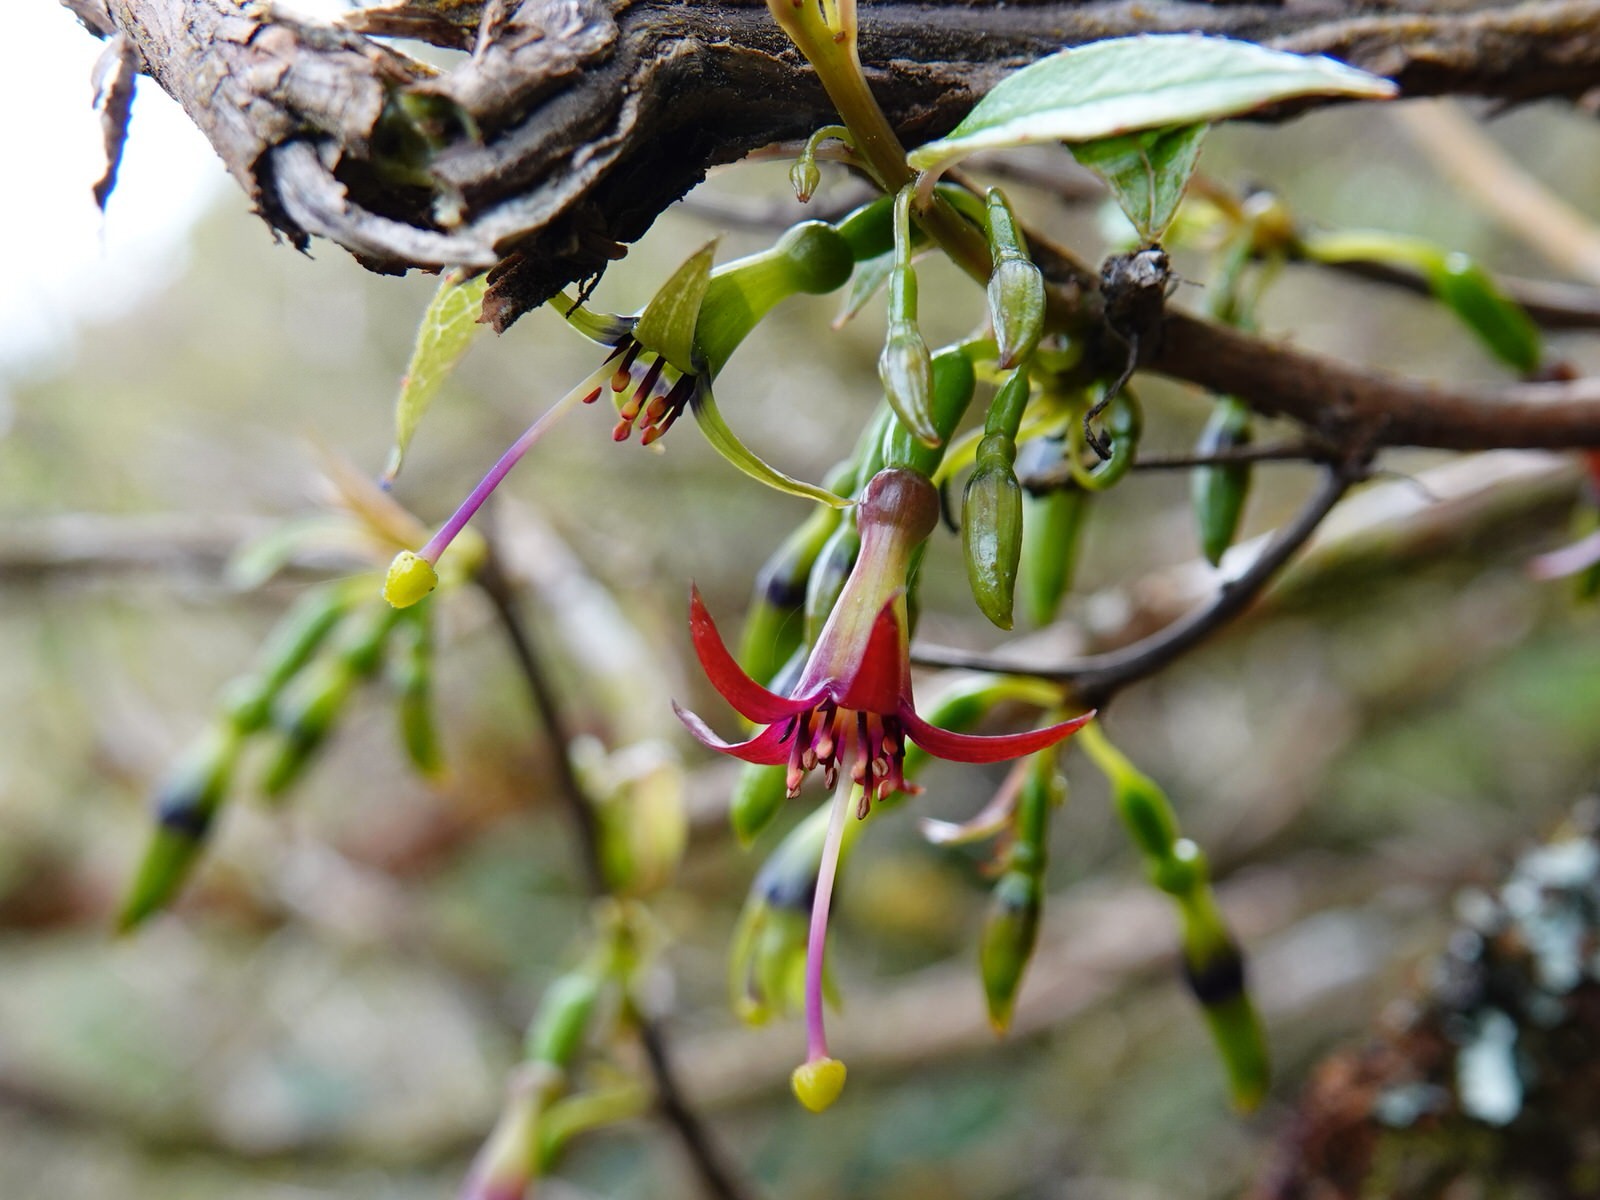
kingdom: Plantae
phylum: Tracheophyta
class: Magnoliopsida
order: Myrtales
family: Onagraceae
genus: Fuchsia
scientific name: Fuchsia excorticata
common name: Tree fuchsia
